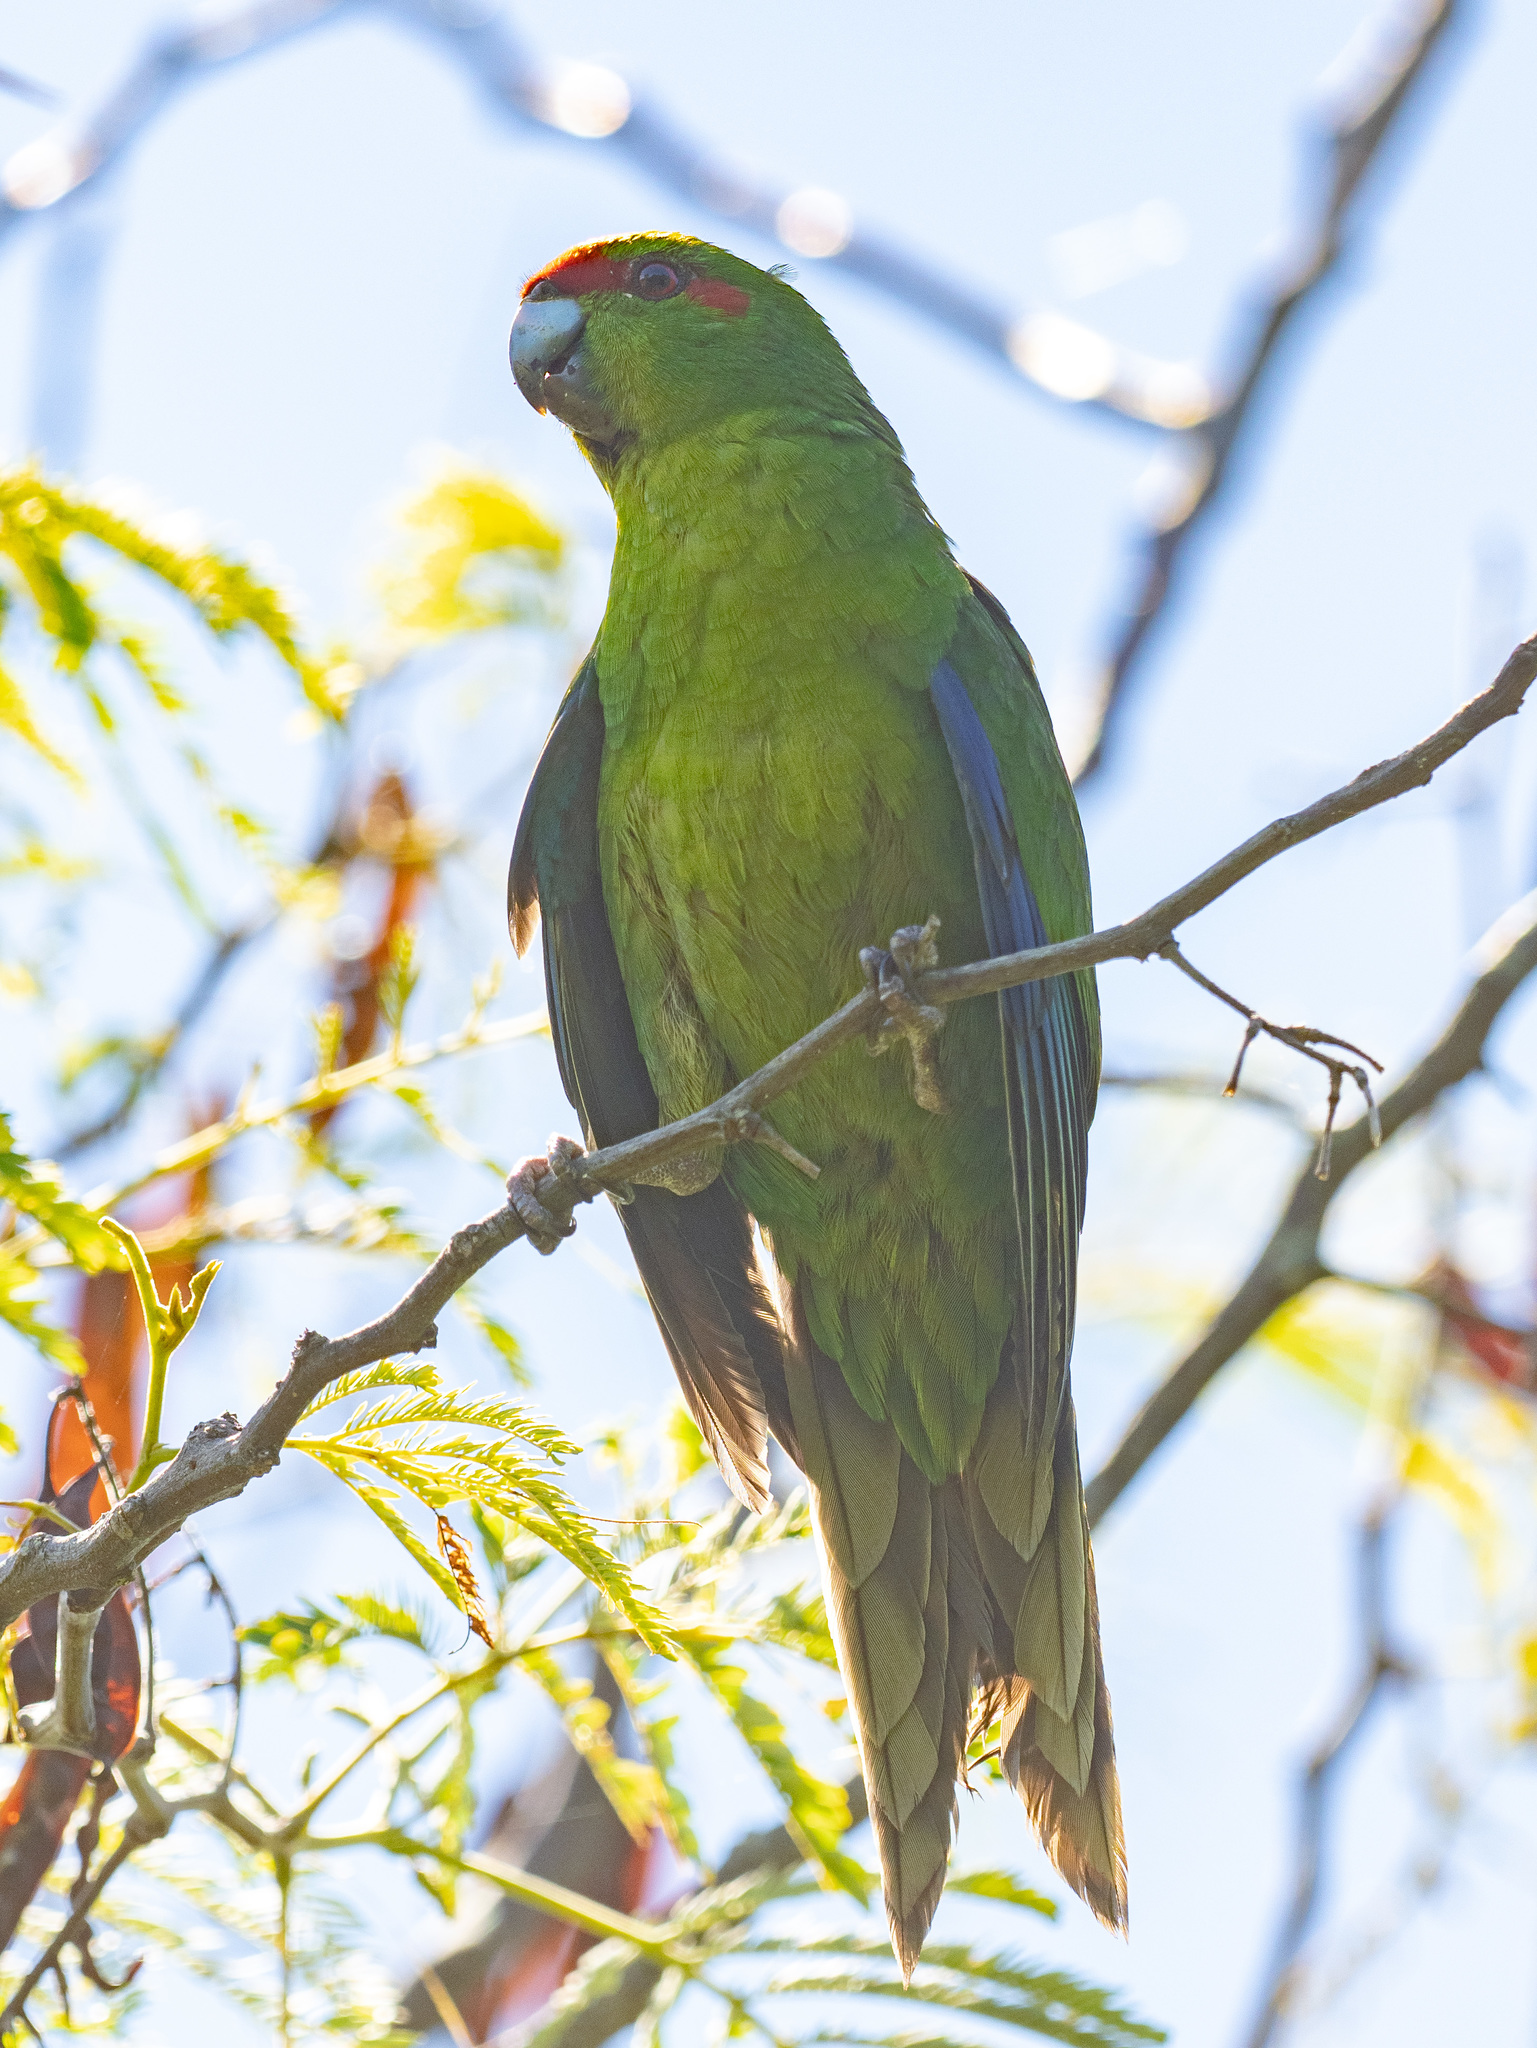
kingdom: Animalia
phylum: Chordata
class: Aves
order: Psittaciformes
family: Psittacidae
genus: Cyanoramphus
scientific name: Cyanoramphus novaezelandiae
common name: Red-fronted parakeet
